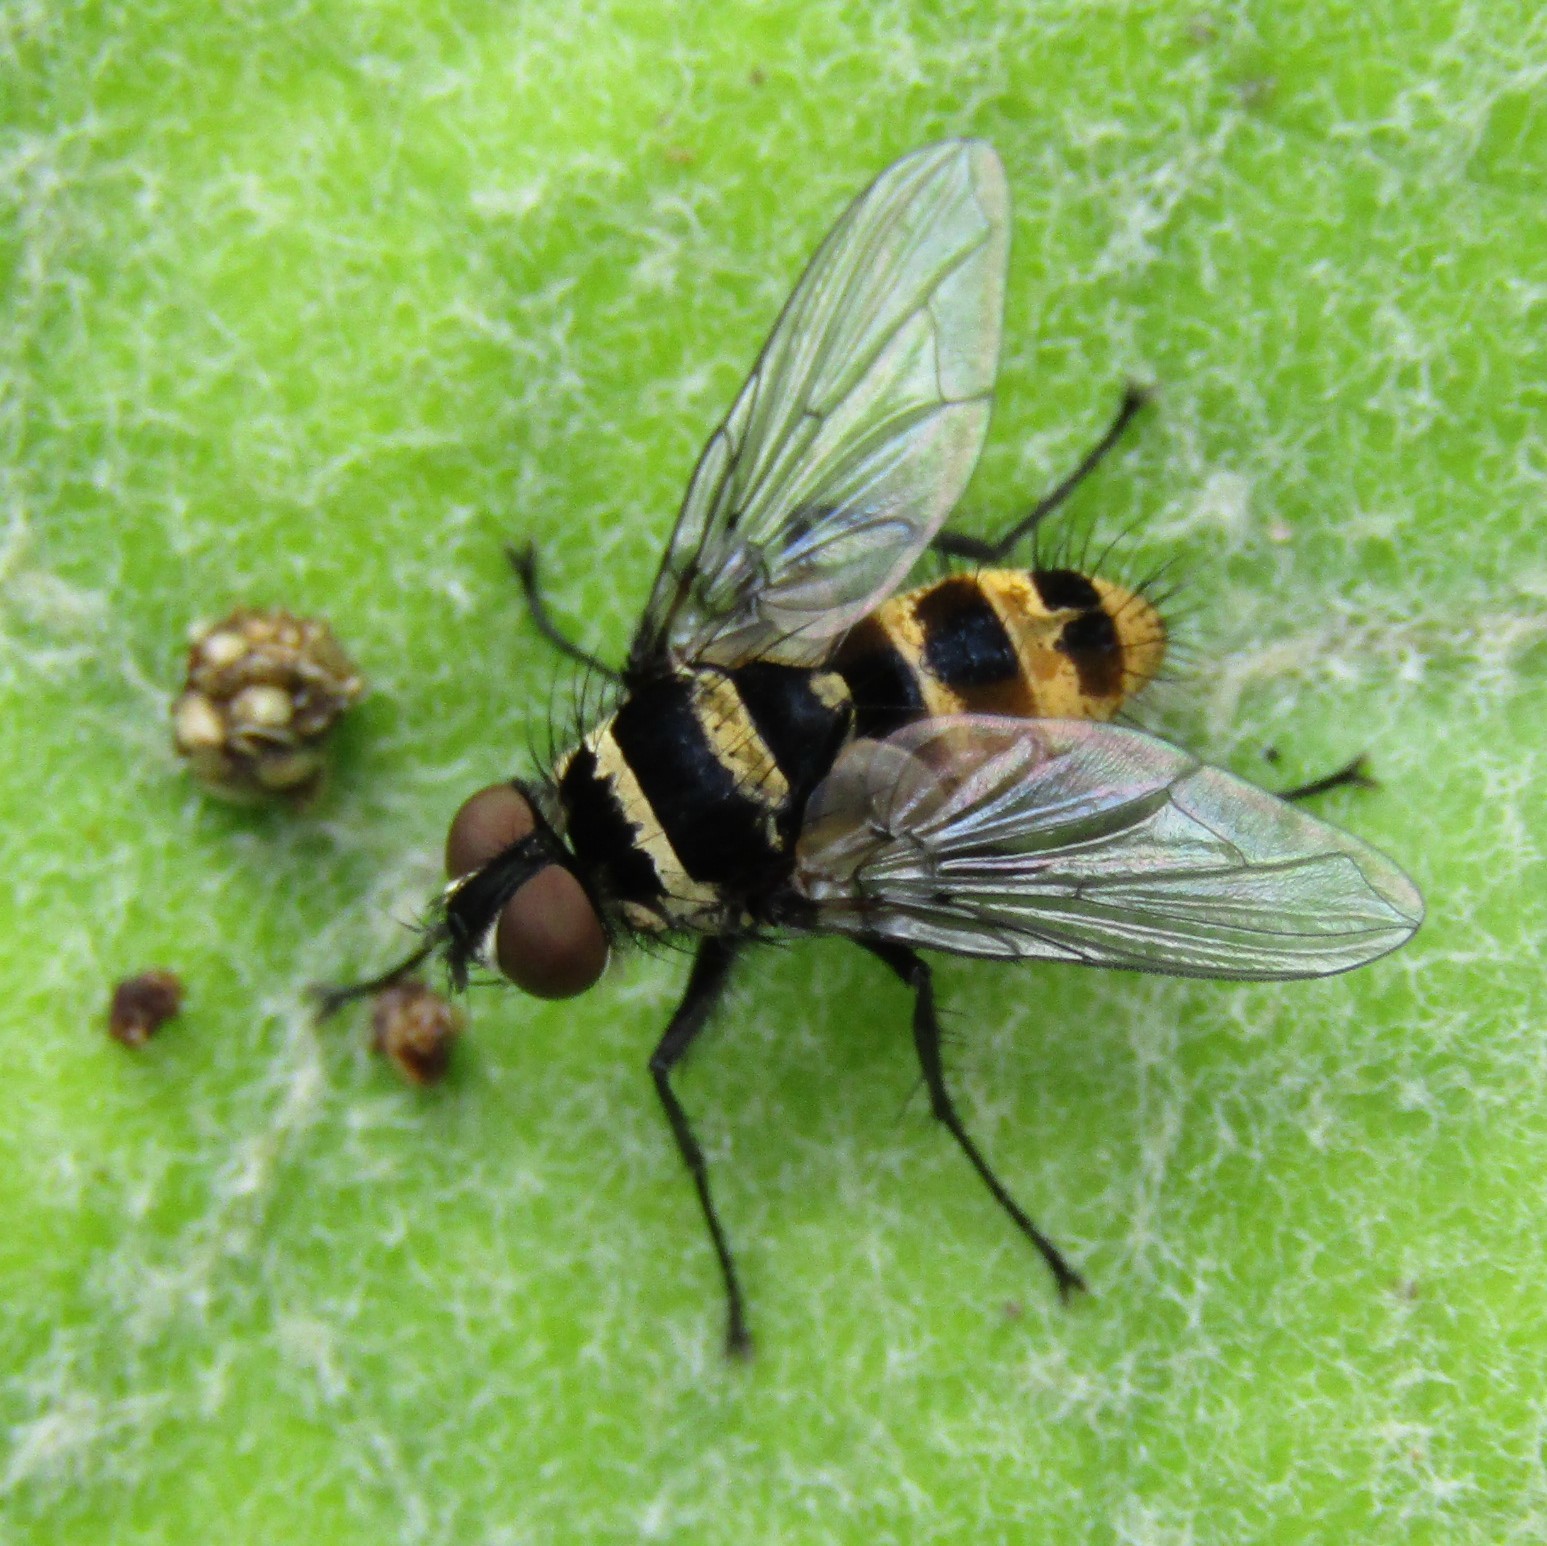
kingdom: Animalia
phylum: Arthropoda
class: Insecta
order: Diptera
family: Tachinidae
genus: Trigonospila
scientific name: Trigonospila brevifacies
